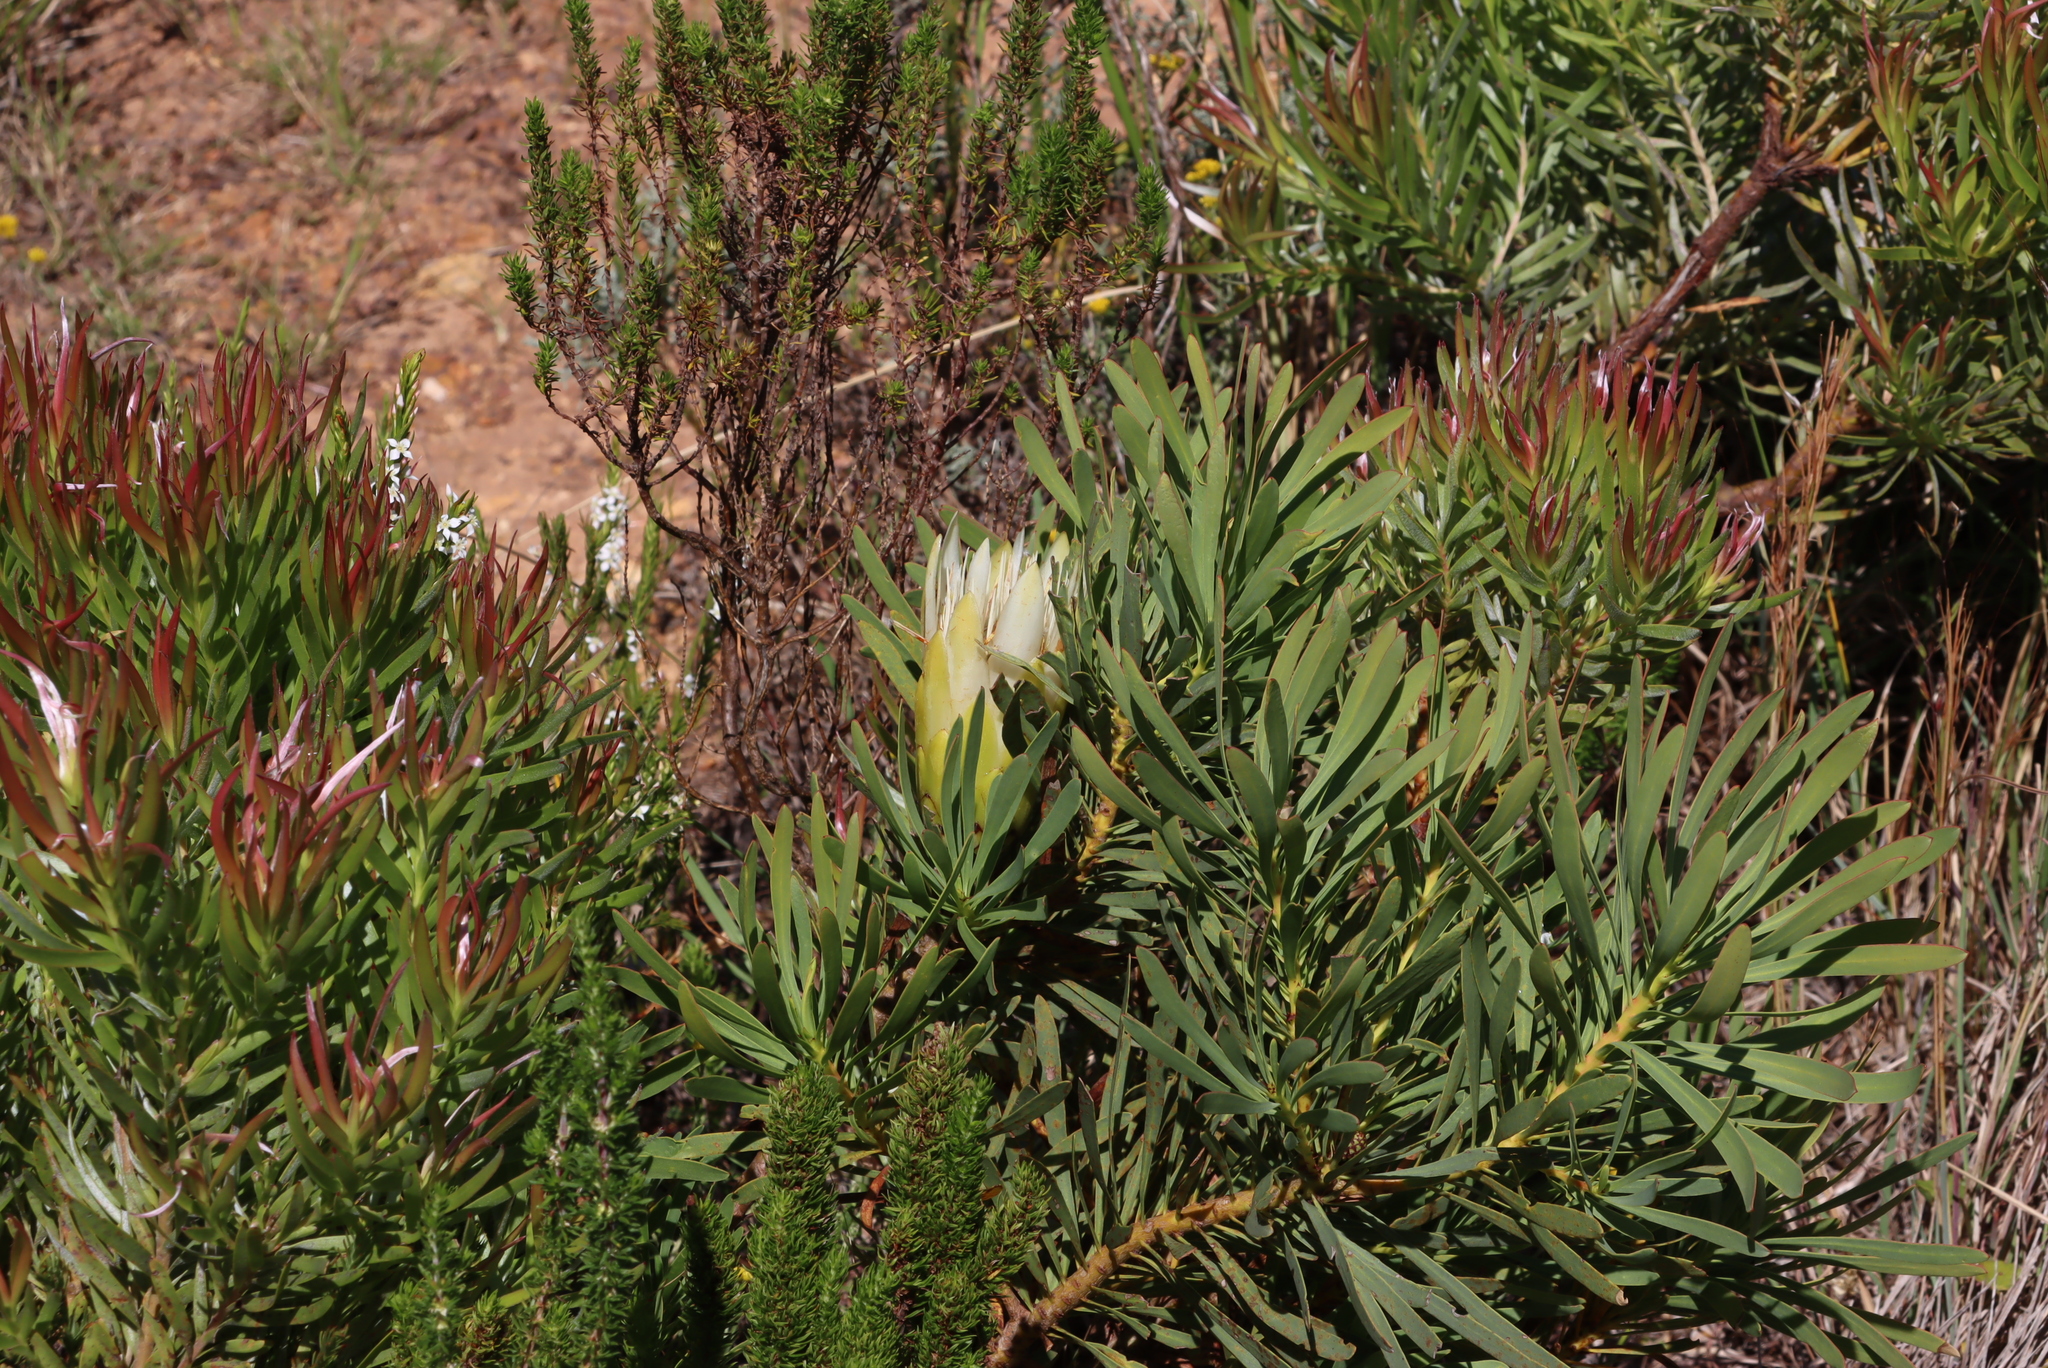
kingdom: Plantae
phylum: Tracheophyta
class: Magnoliopsida
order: Proteales
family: Proteaceae
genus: Protea
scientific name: Protea repens
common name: Sugarbush
